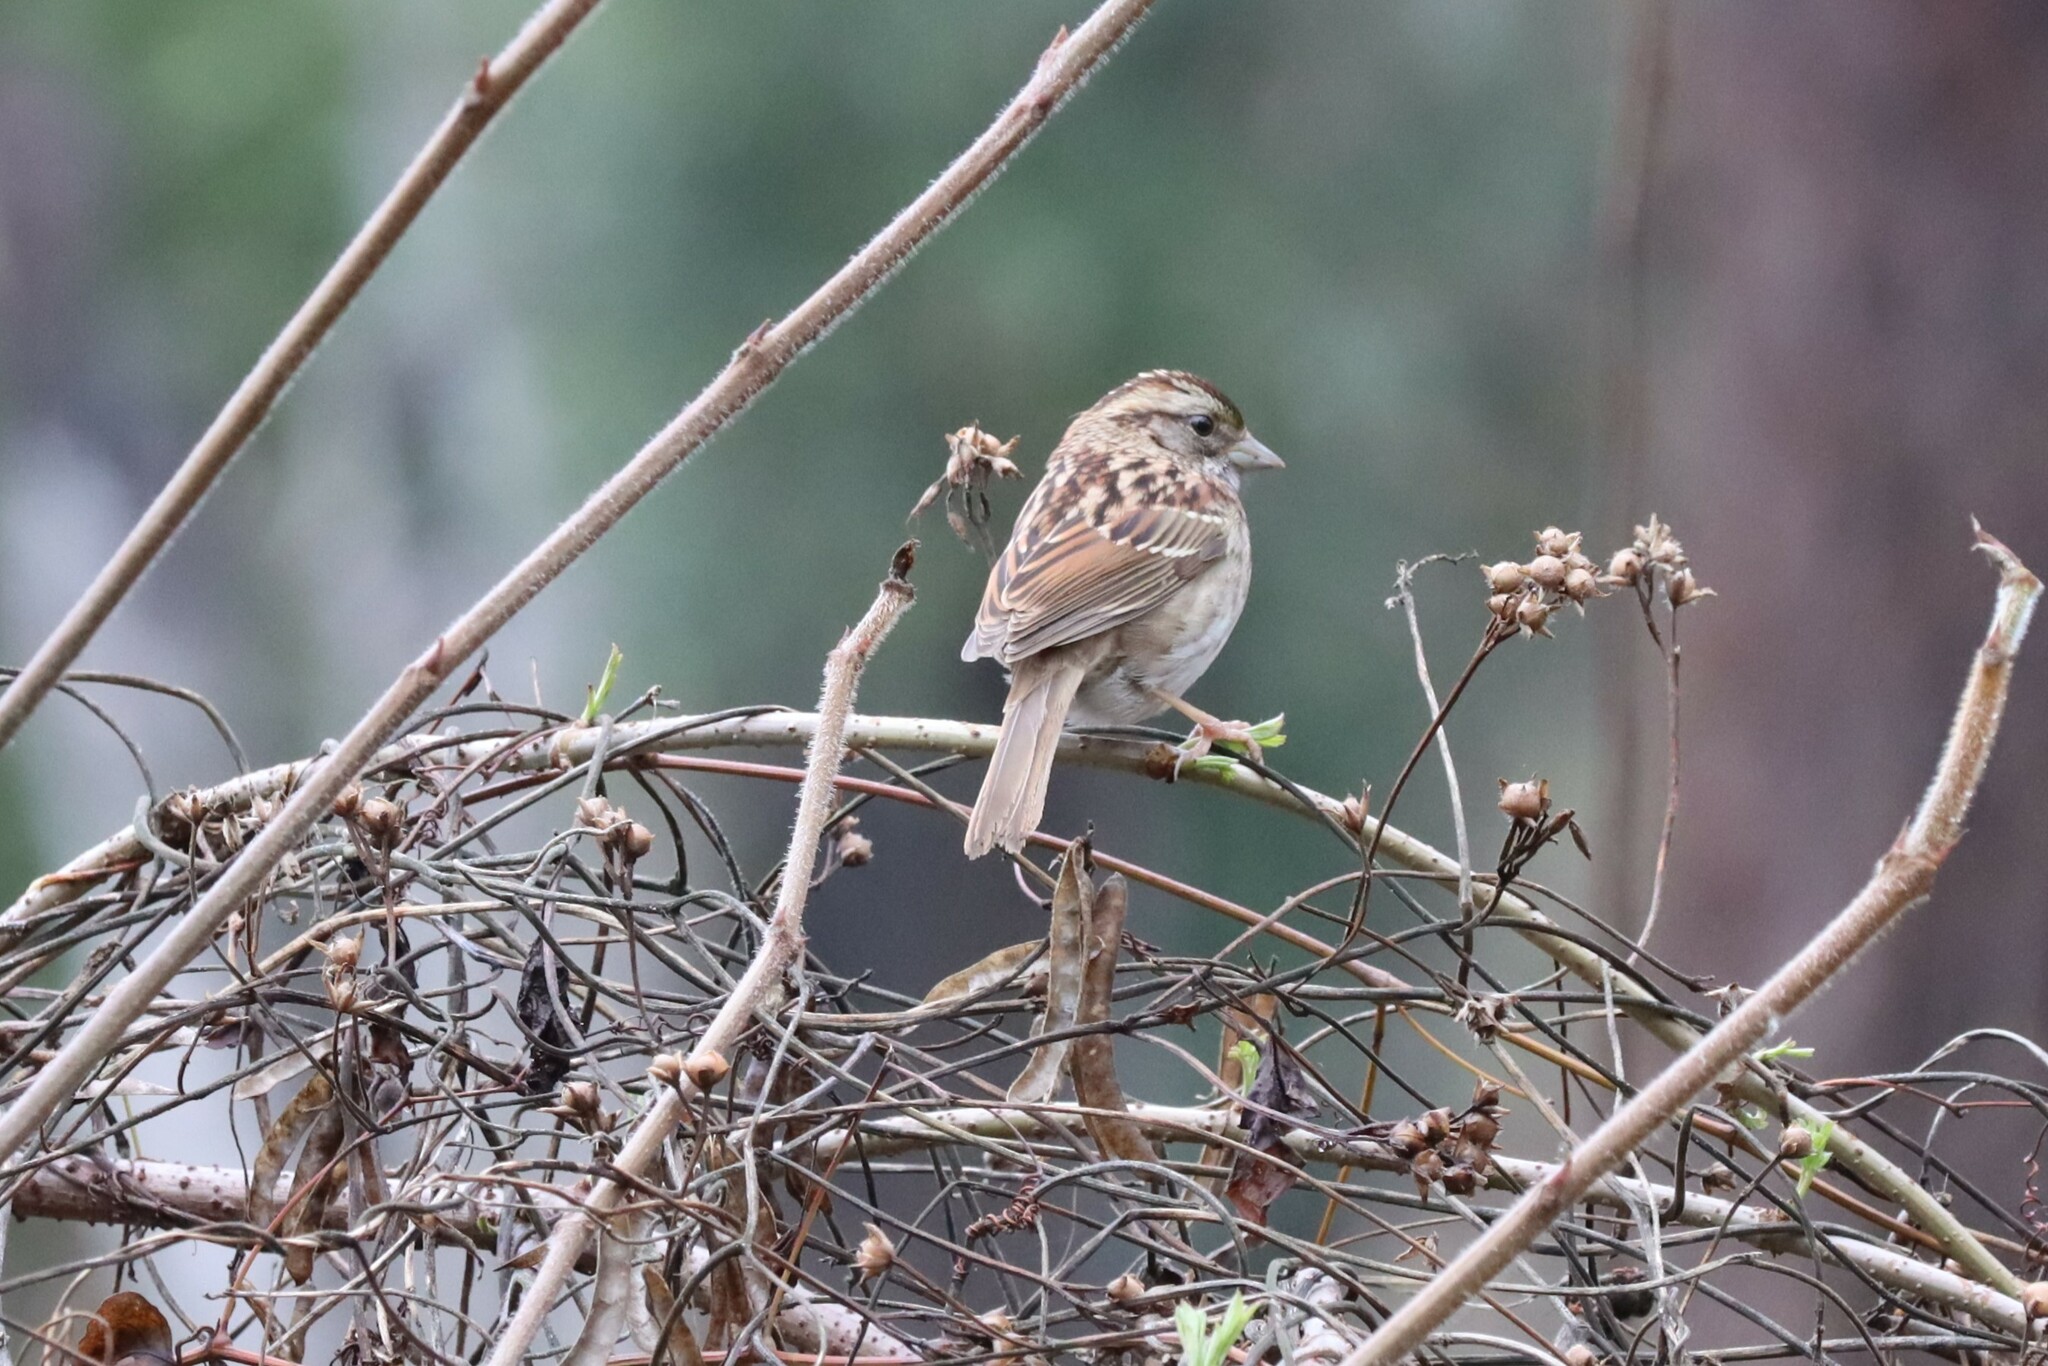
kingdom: Animalia
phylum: Chordata
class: Aves
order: Passeriformes
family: Passerellidae
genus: Zonotrichia
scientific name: Zonotrichia albicollis
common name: White-throated sparrow
